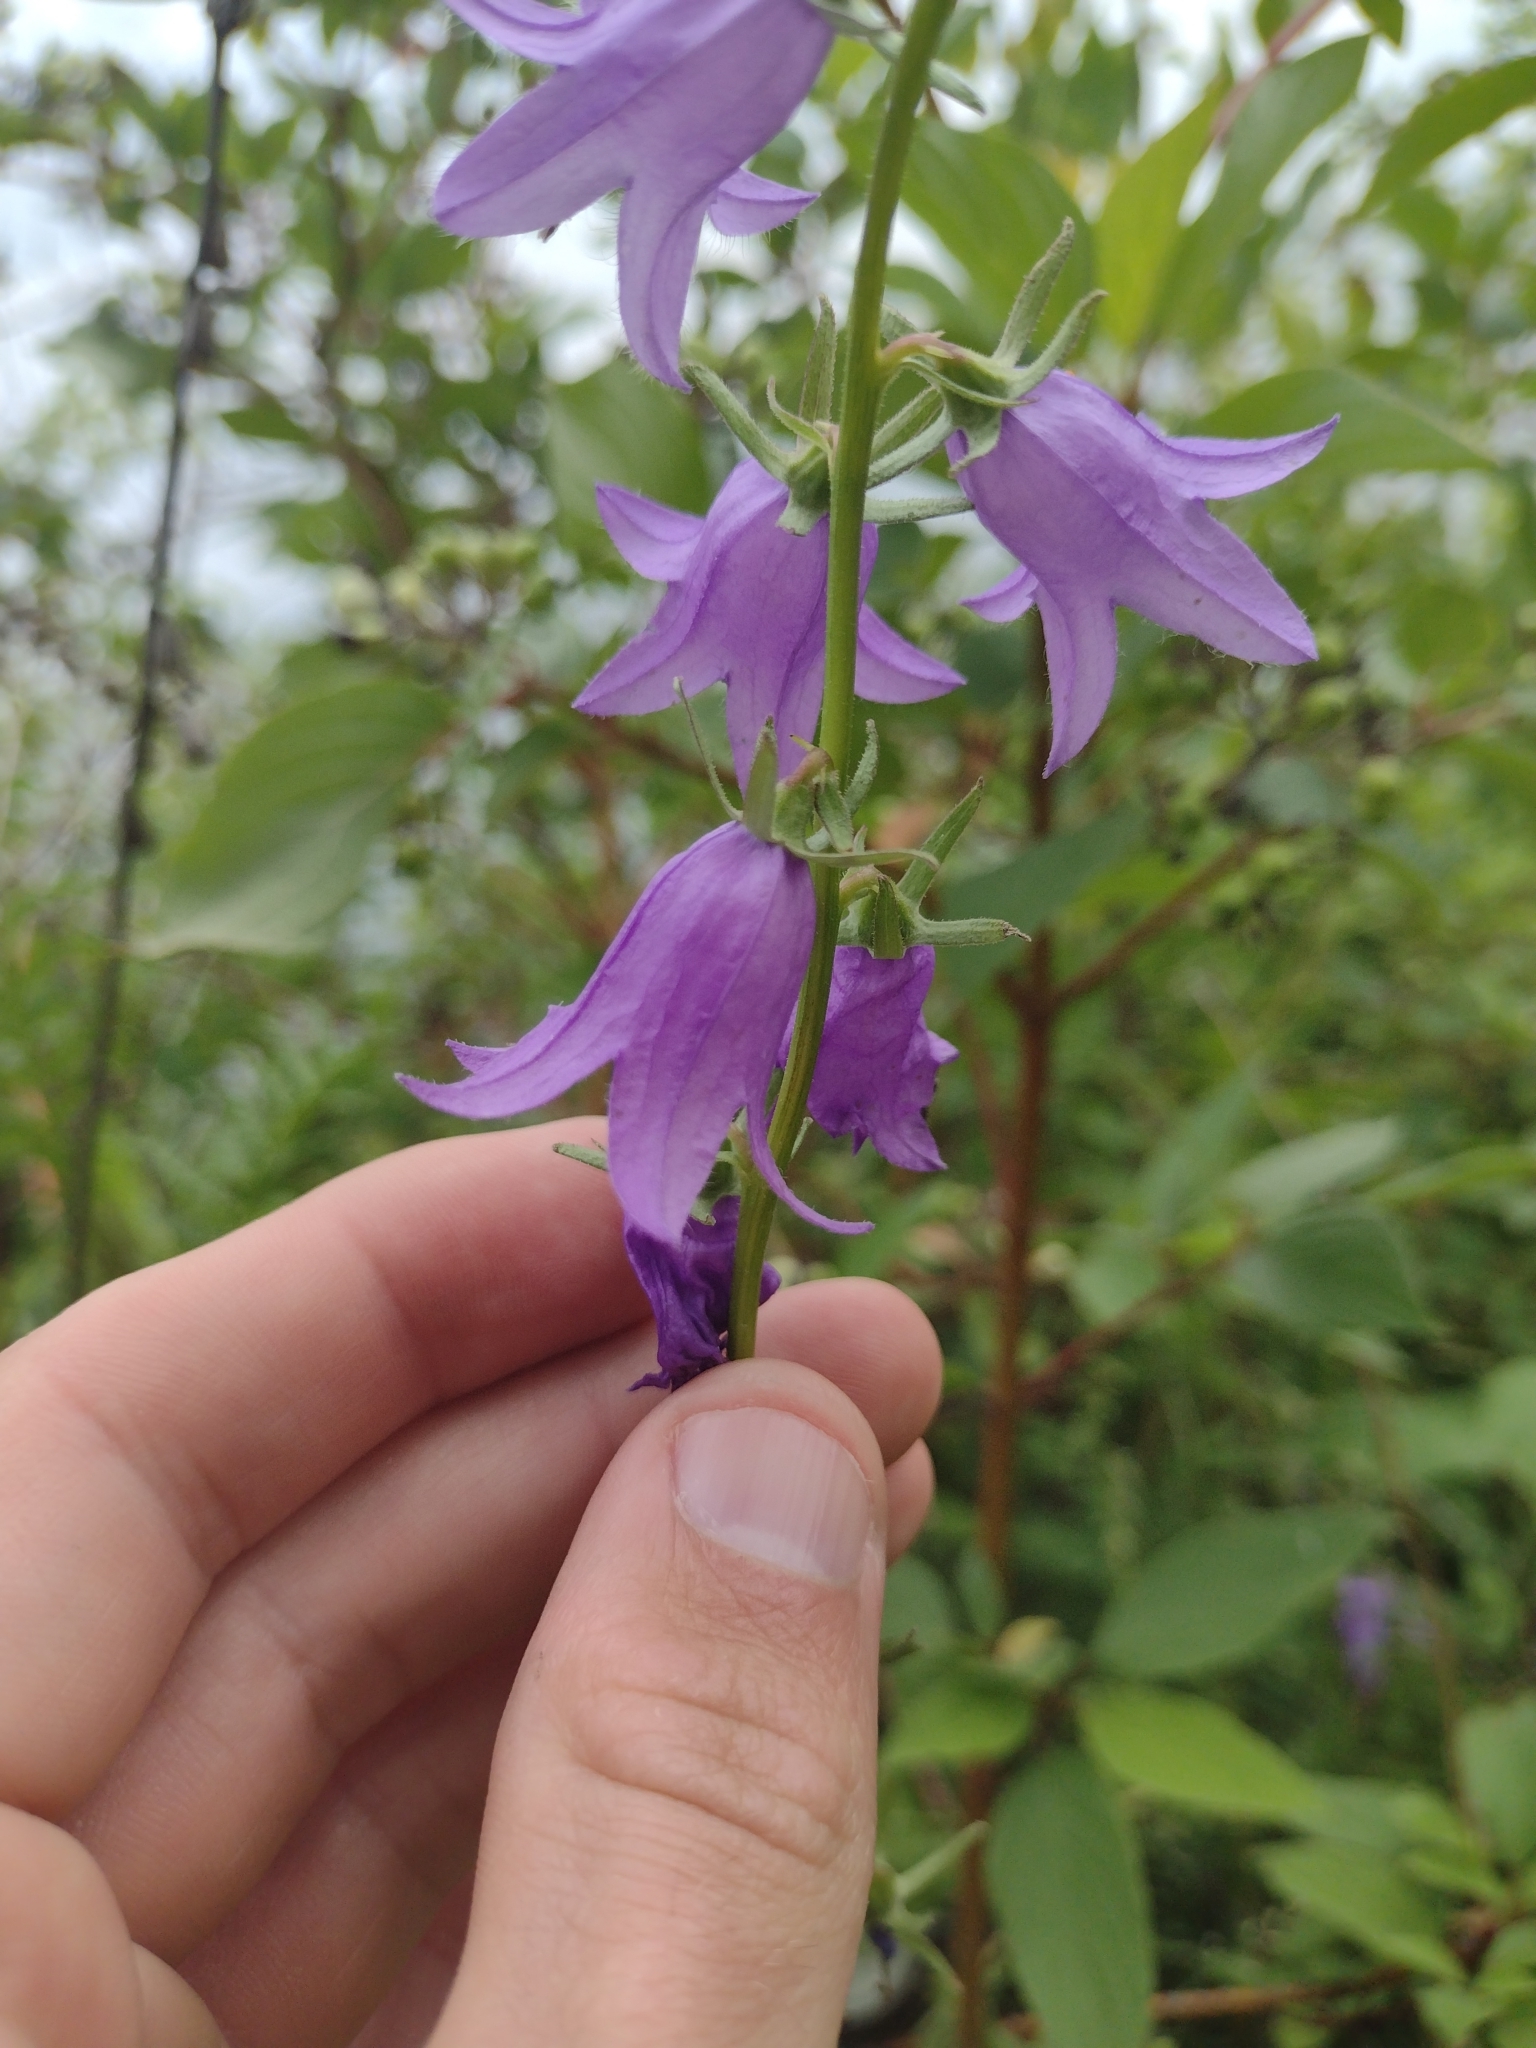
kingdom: Plantae
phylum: Tracheophyta
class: Magnoliopsida
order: Asterales
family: Campanulaceae
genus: Campanula
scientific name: Campanula rapunculoides
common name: Creeping bellflower
